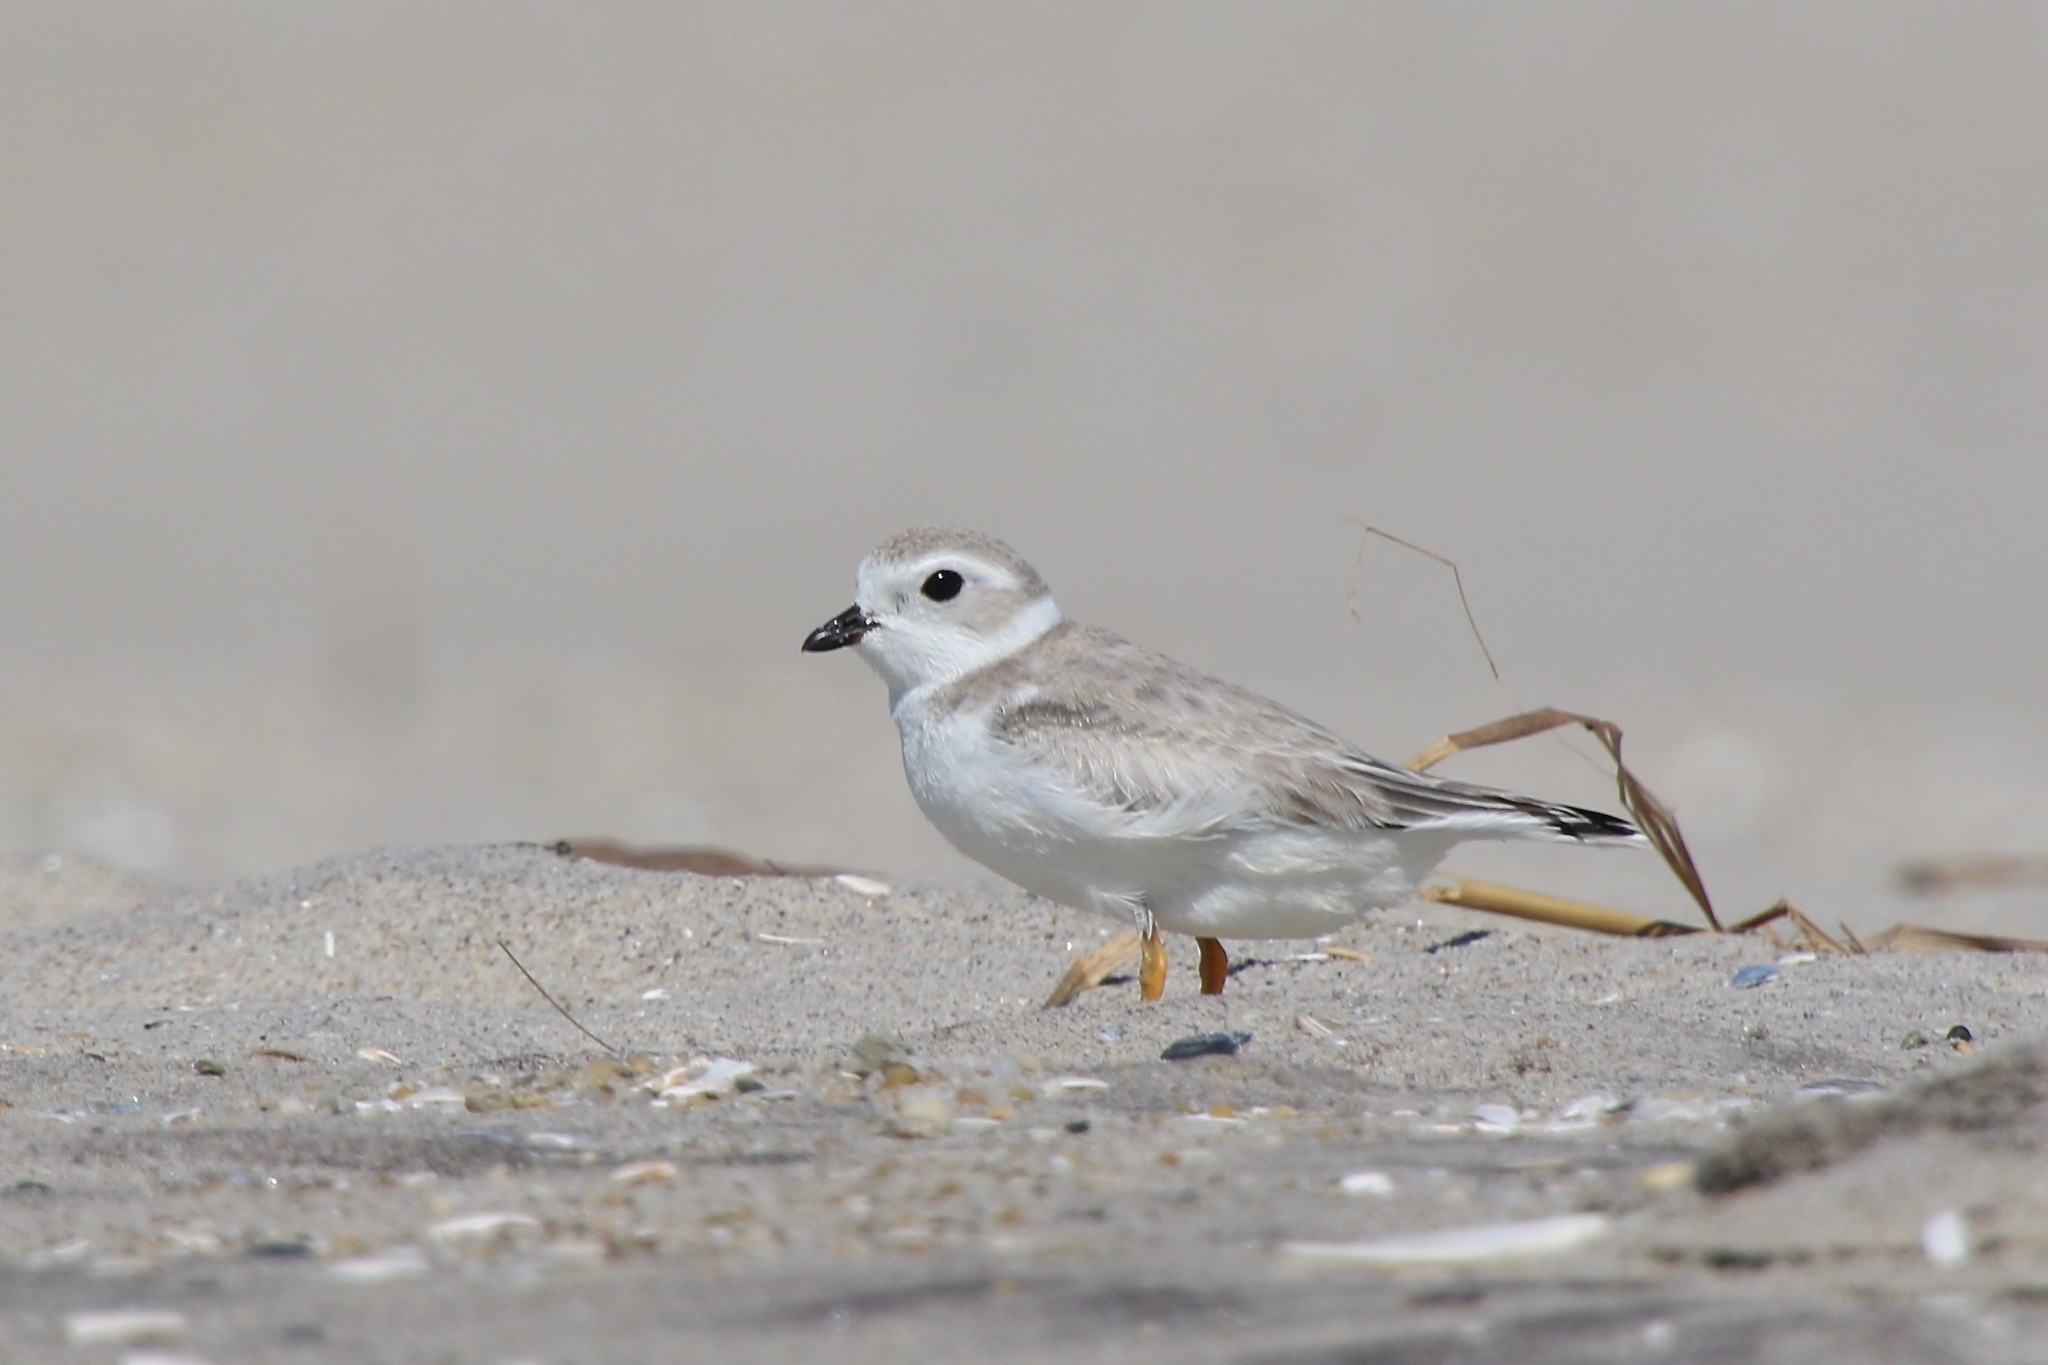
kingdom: Animalia
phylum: Chordata
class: Aves
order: Charadriiformes
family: Charadriidae
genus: Charadrius
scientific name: Charadrius melodus
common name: Piping plover
